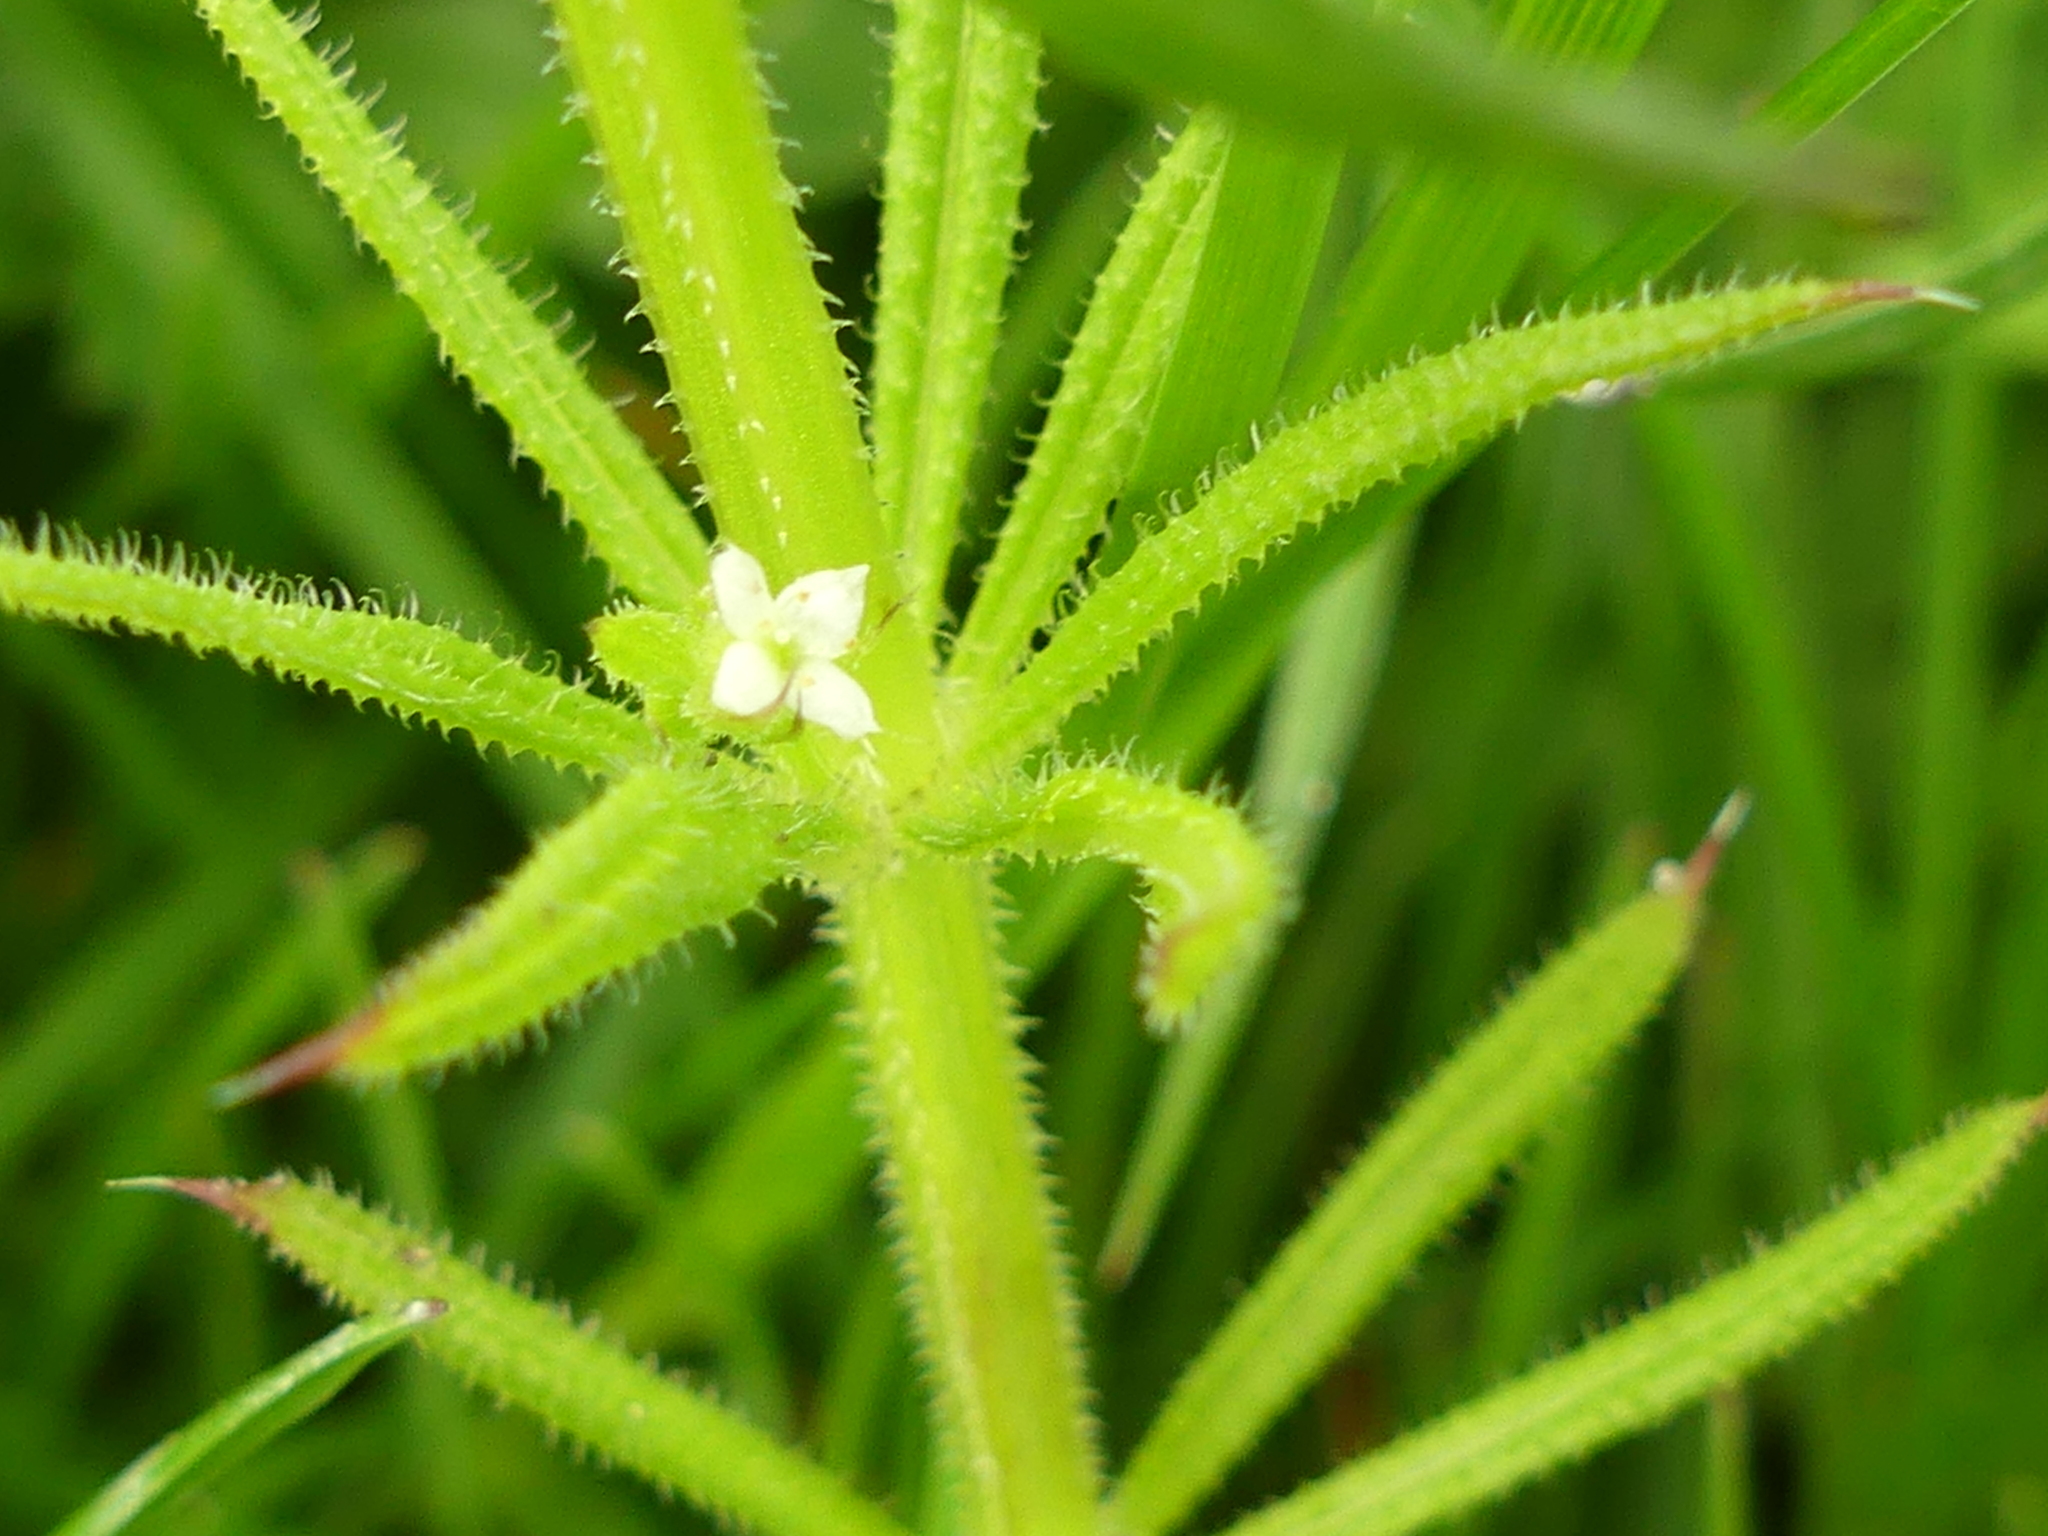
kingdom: Plantae
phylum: Tracheophyta
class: Magnoliopsida
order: Gentianales
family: Rubiaceae
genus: Galium
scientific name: Galium aparine
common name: Cleavers
